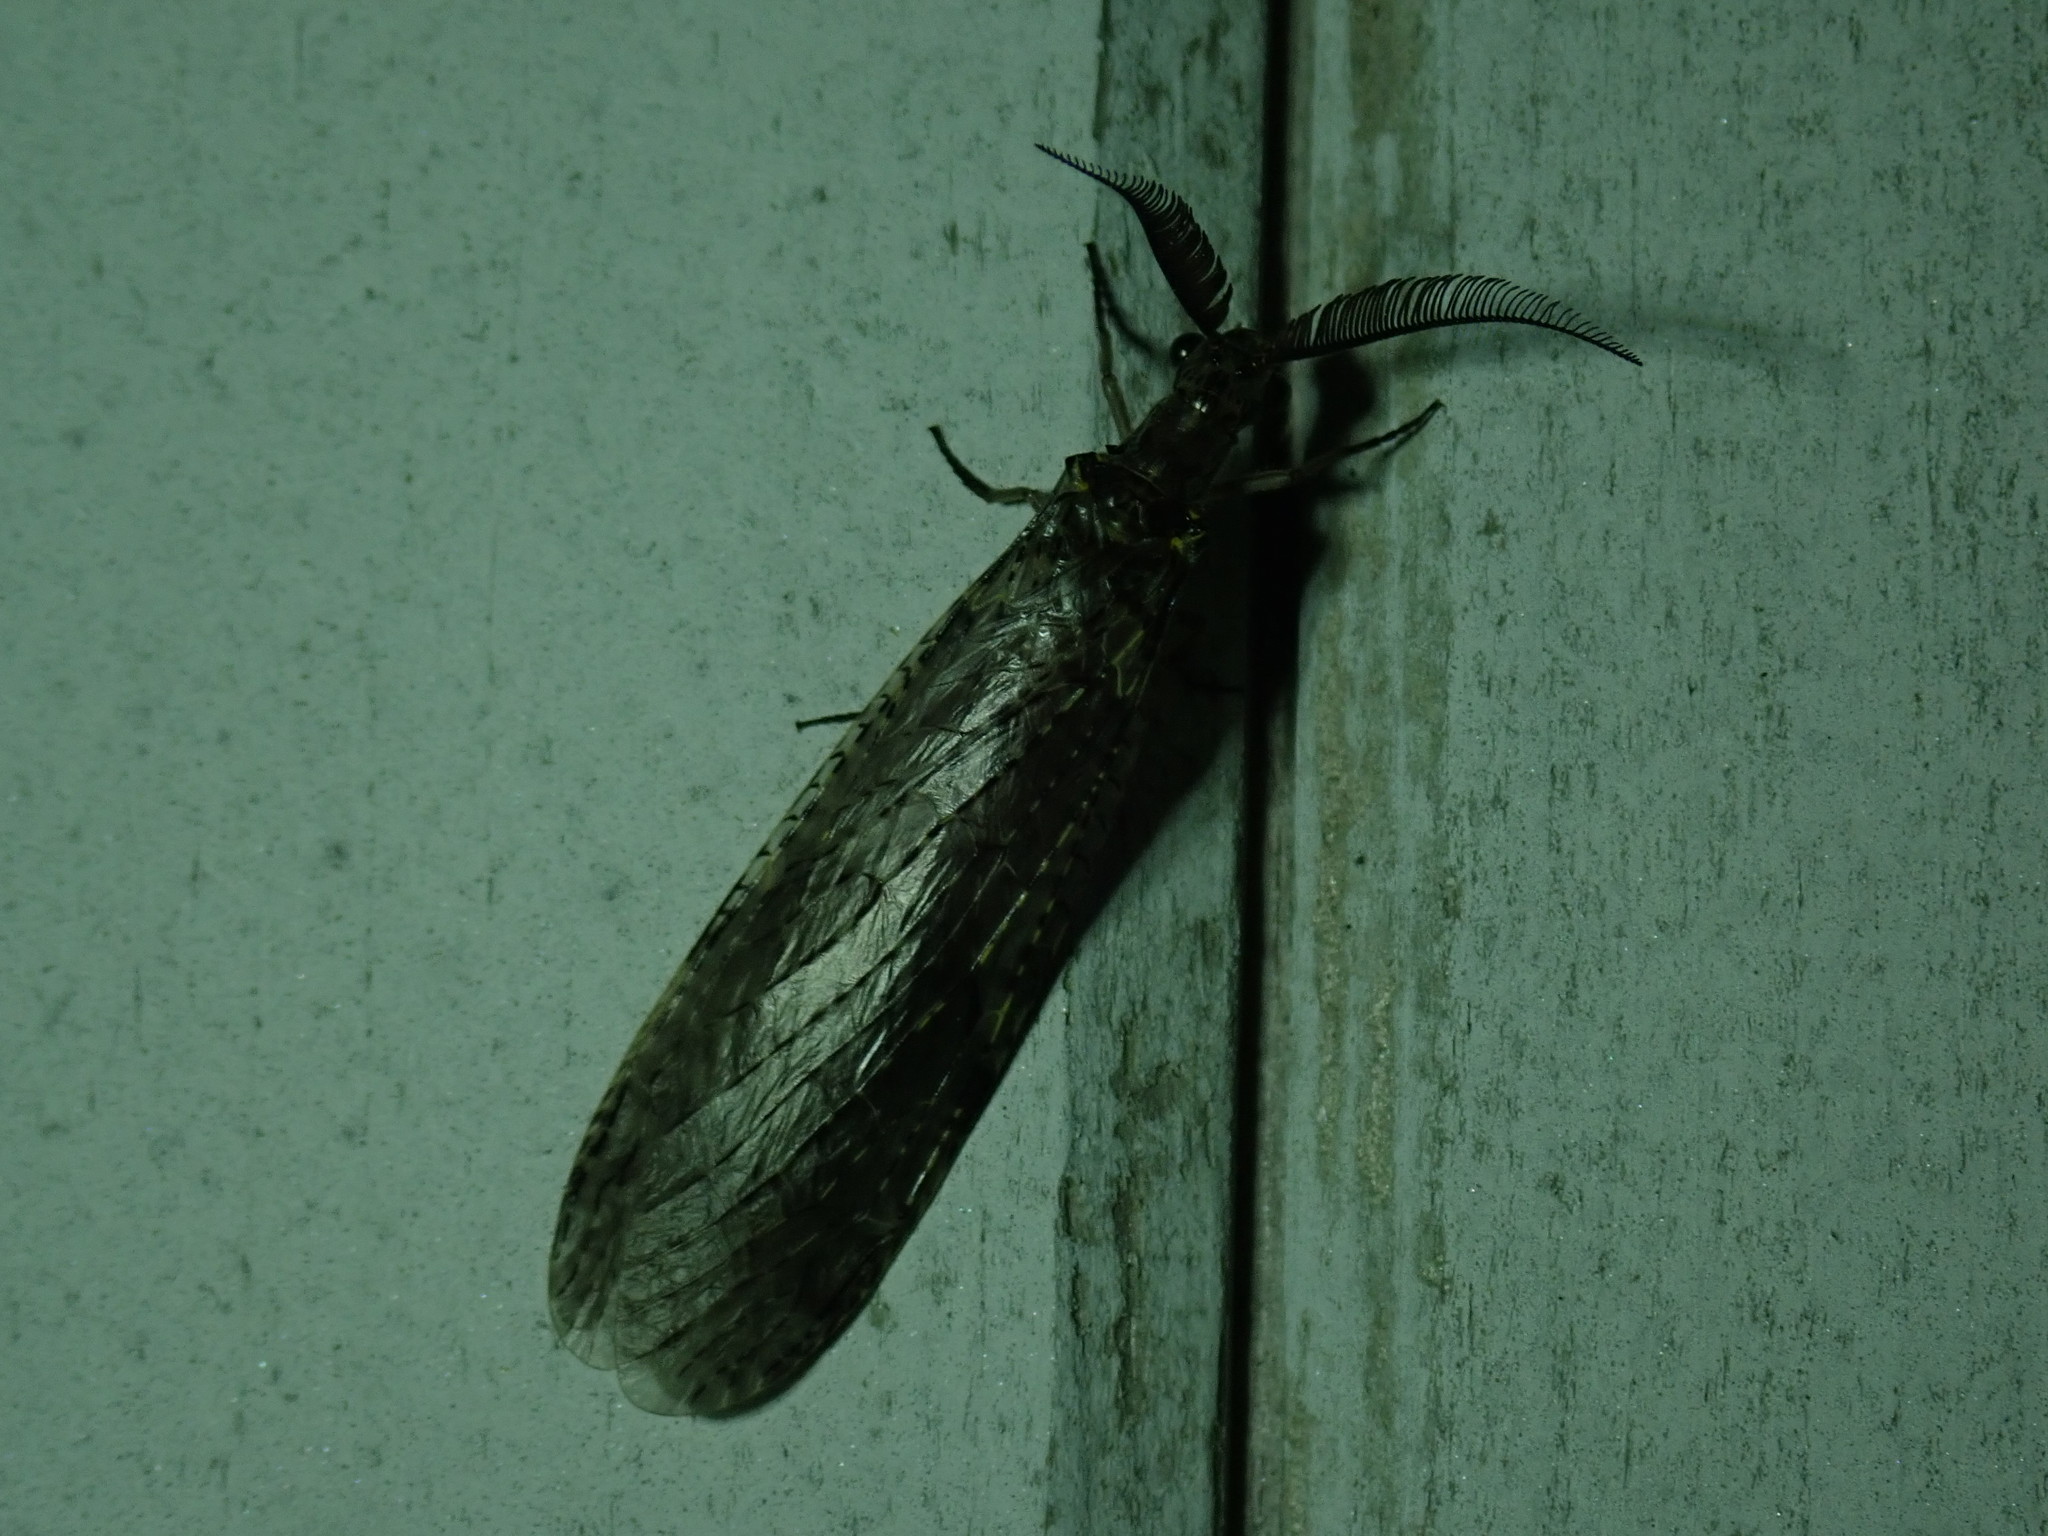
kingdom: Animalia
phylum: Arthropoda
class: Insecta
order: Megaloptera
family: Corydalidae
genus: Chauliodes
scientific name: Chauliodes rastricornis
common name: Spring fishfly
